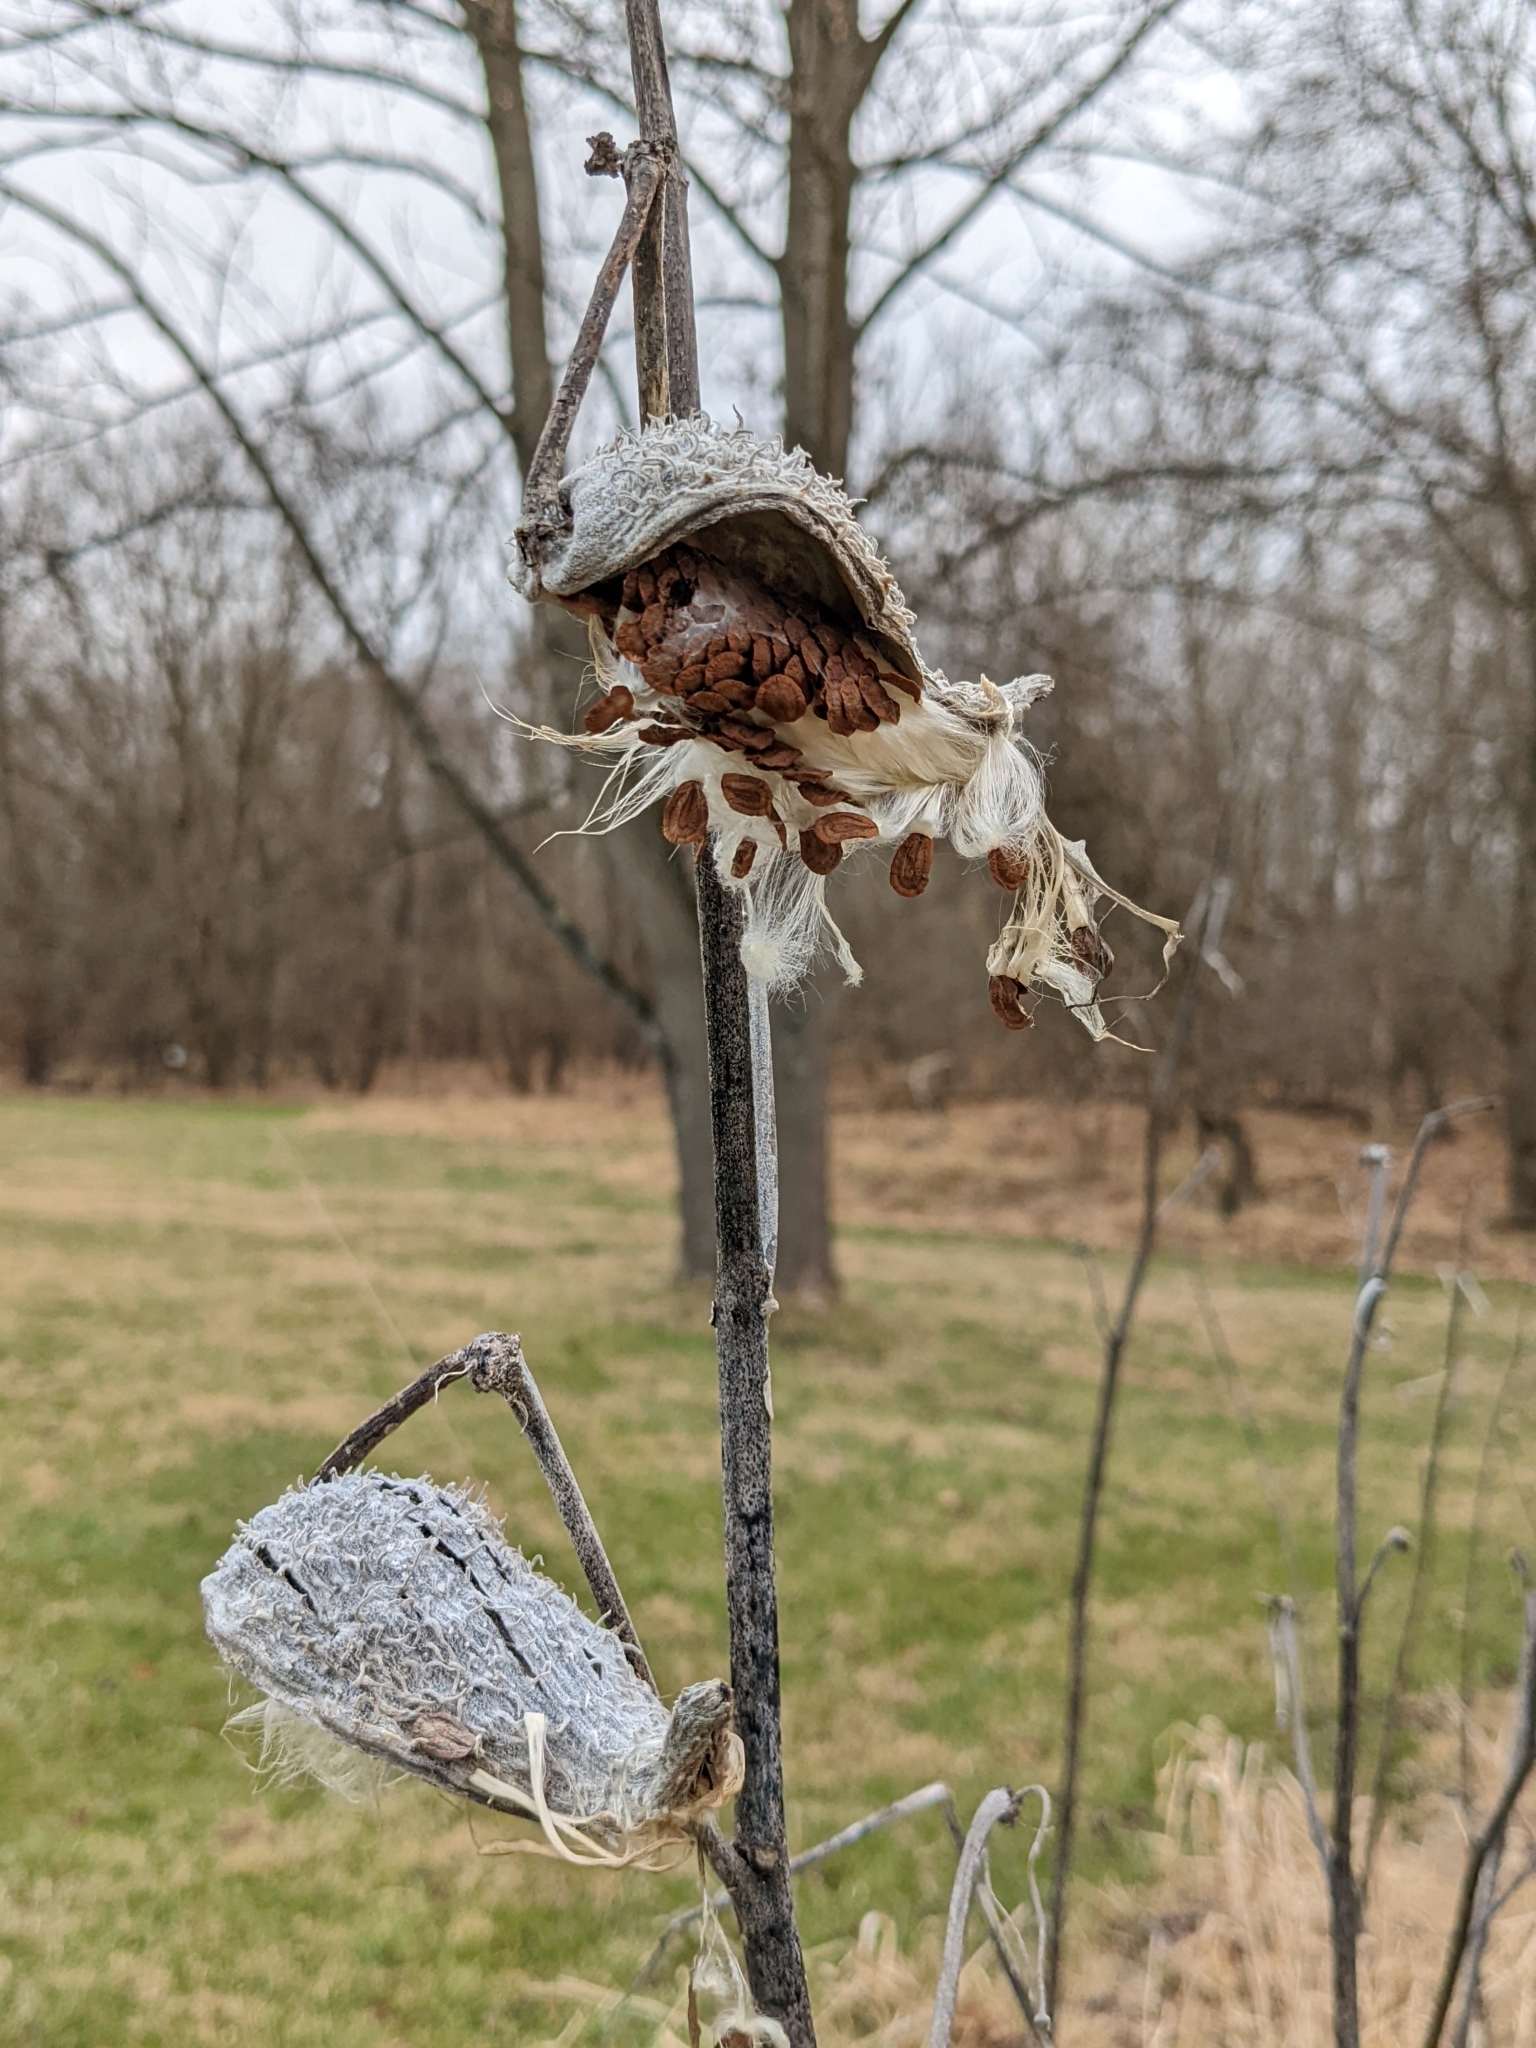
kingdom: Plantae
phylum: Tracheophyta
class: Magnoliopsida
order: Gentianales
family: Apocynaceae
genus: Asclepias
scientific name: Asclepias syriaca
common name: Common milkweed
